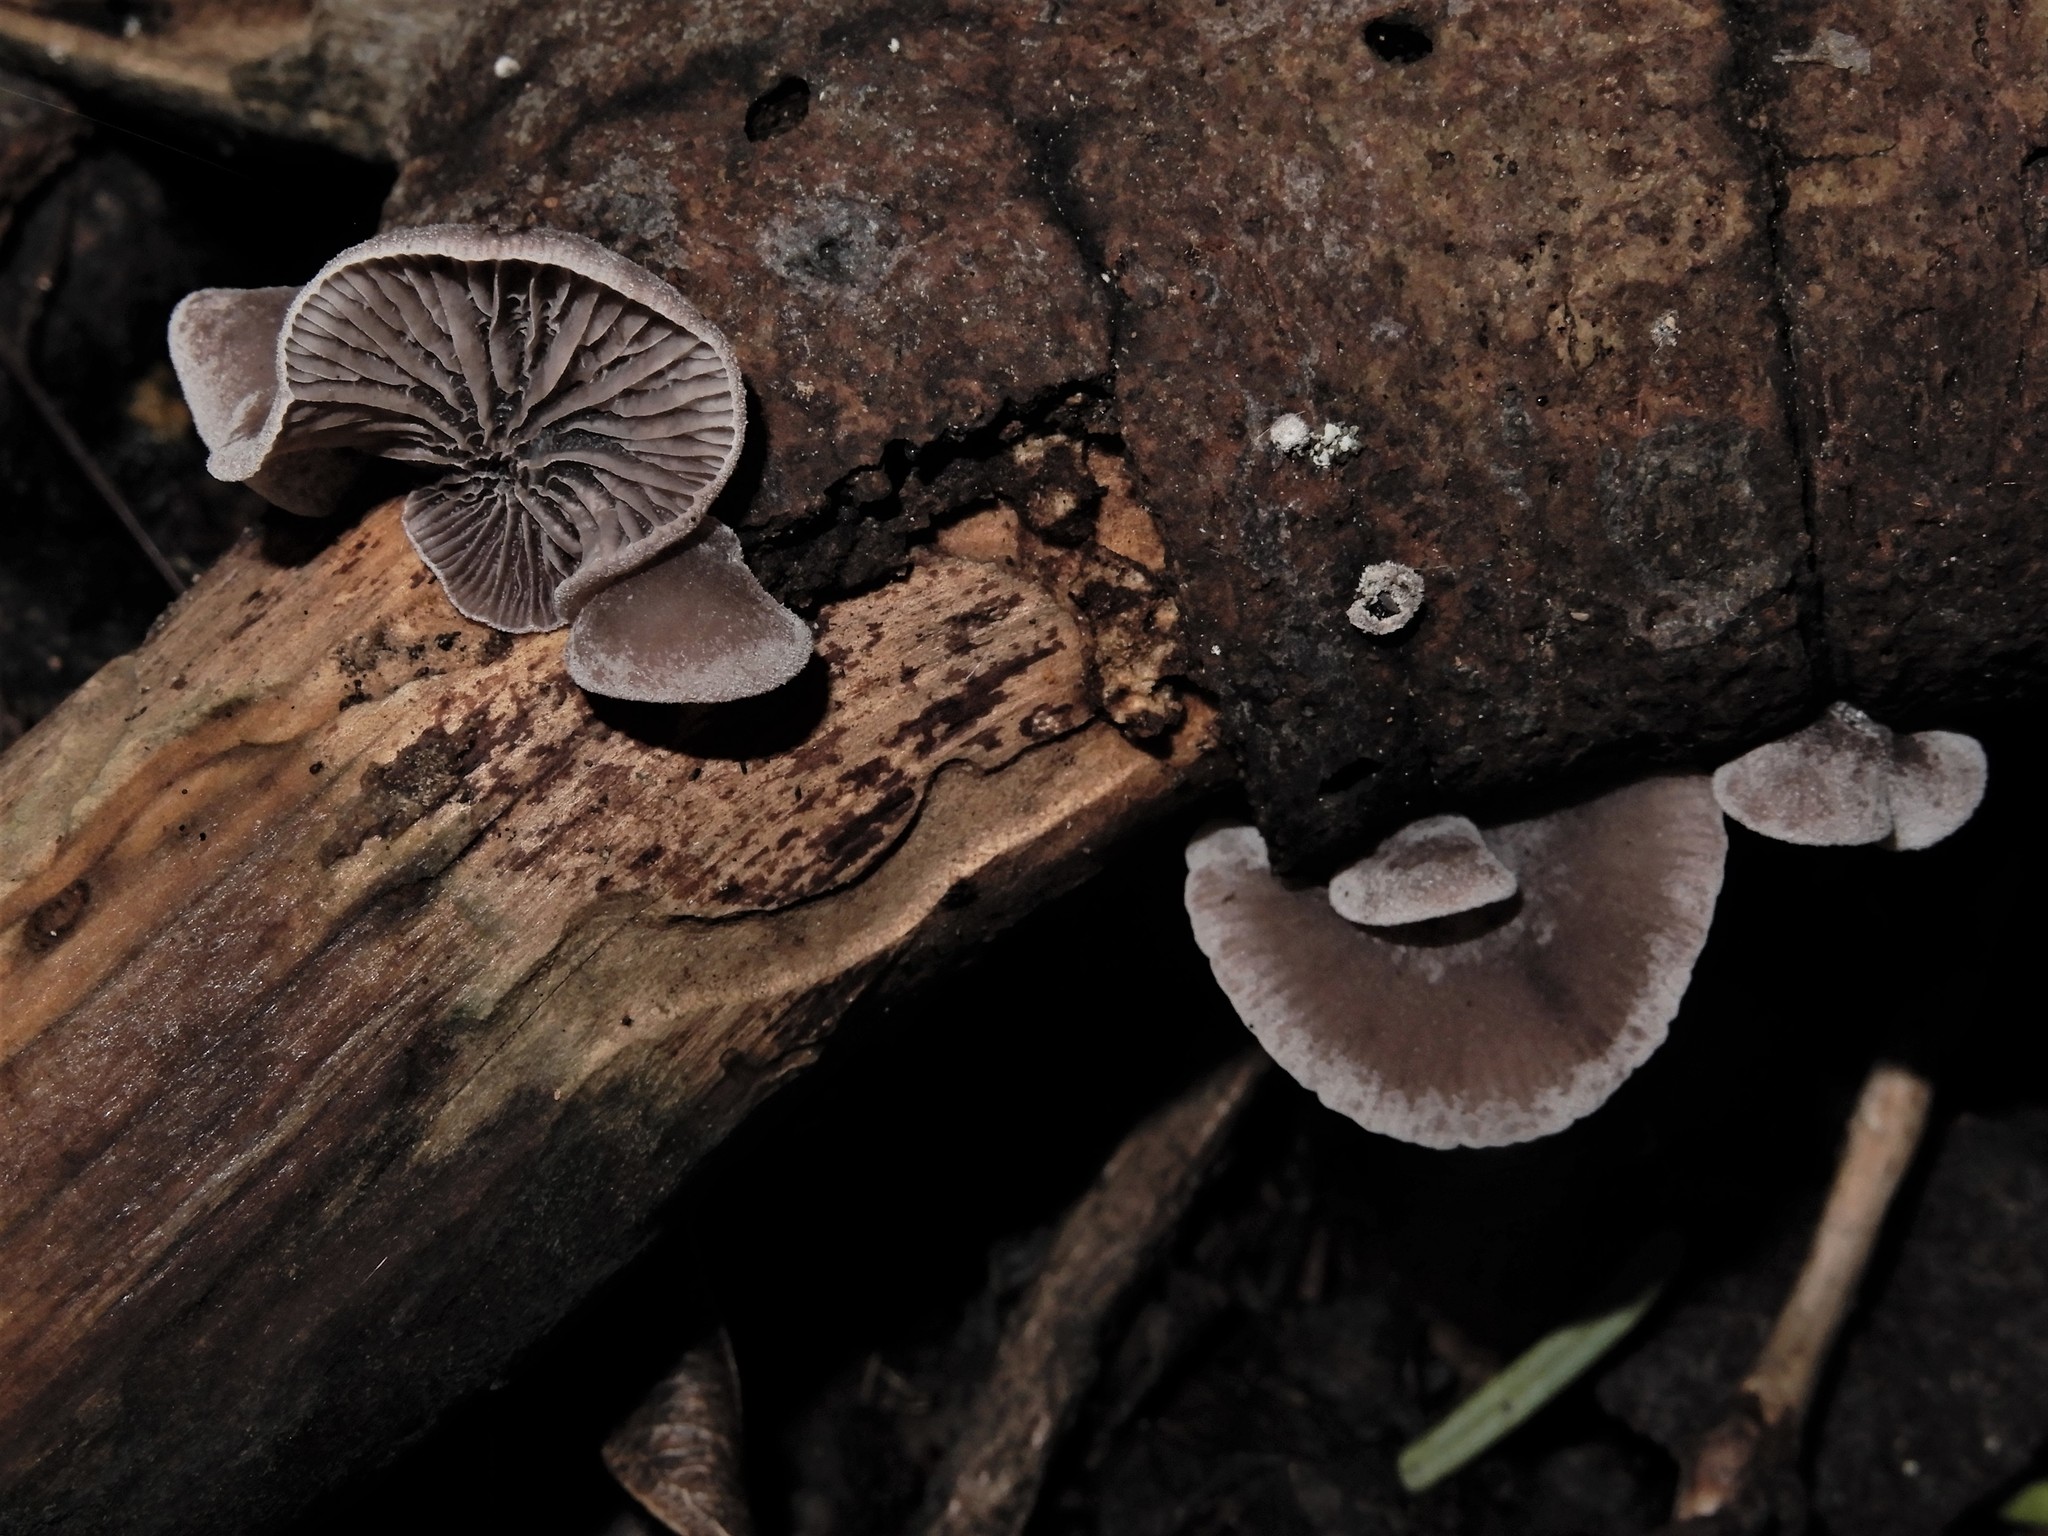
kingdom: Fungi
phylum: Basidiomycota
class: Agaricomycetes
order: Agaricales
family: Pleurotaceae
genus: Resupinatus
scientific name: Resupinatus vinosolividus
